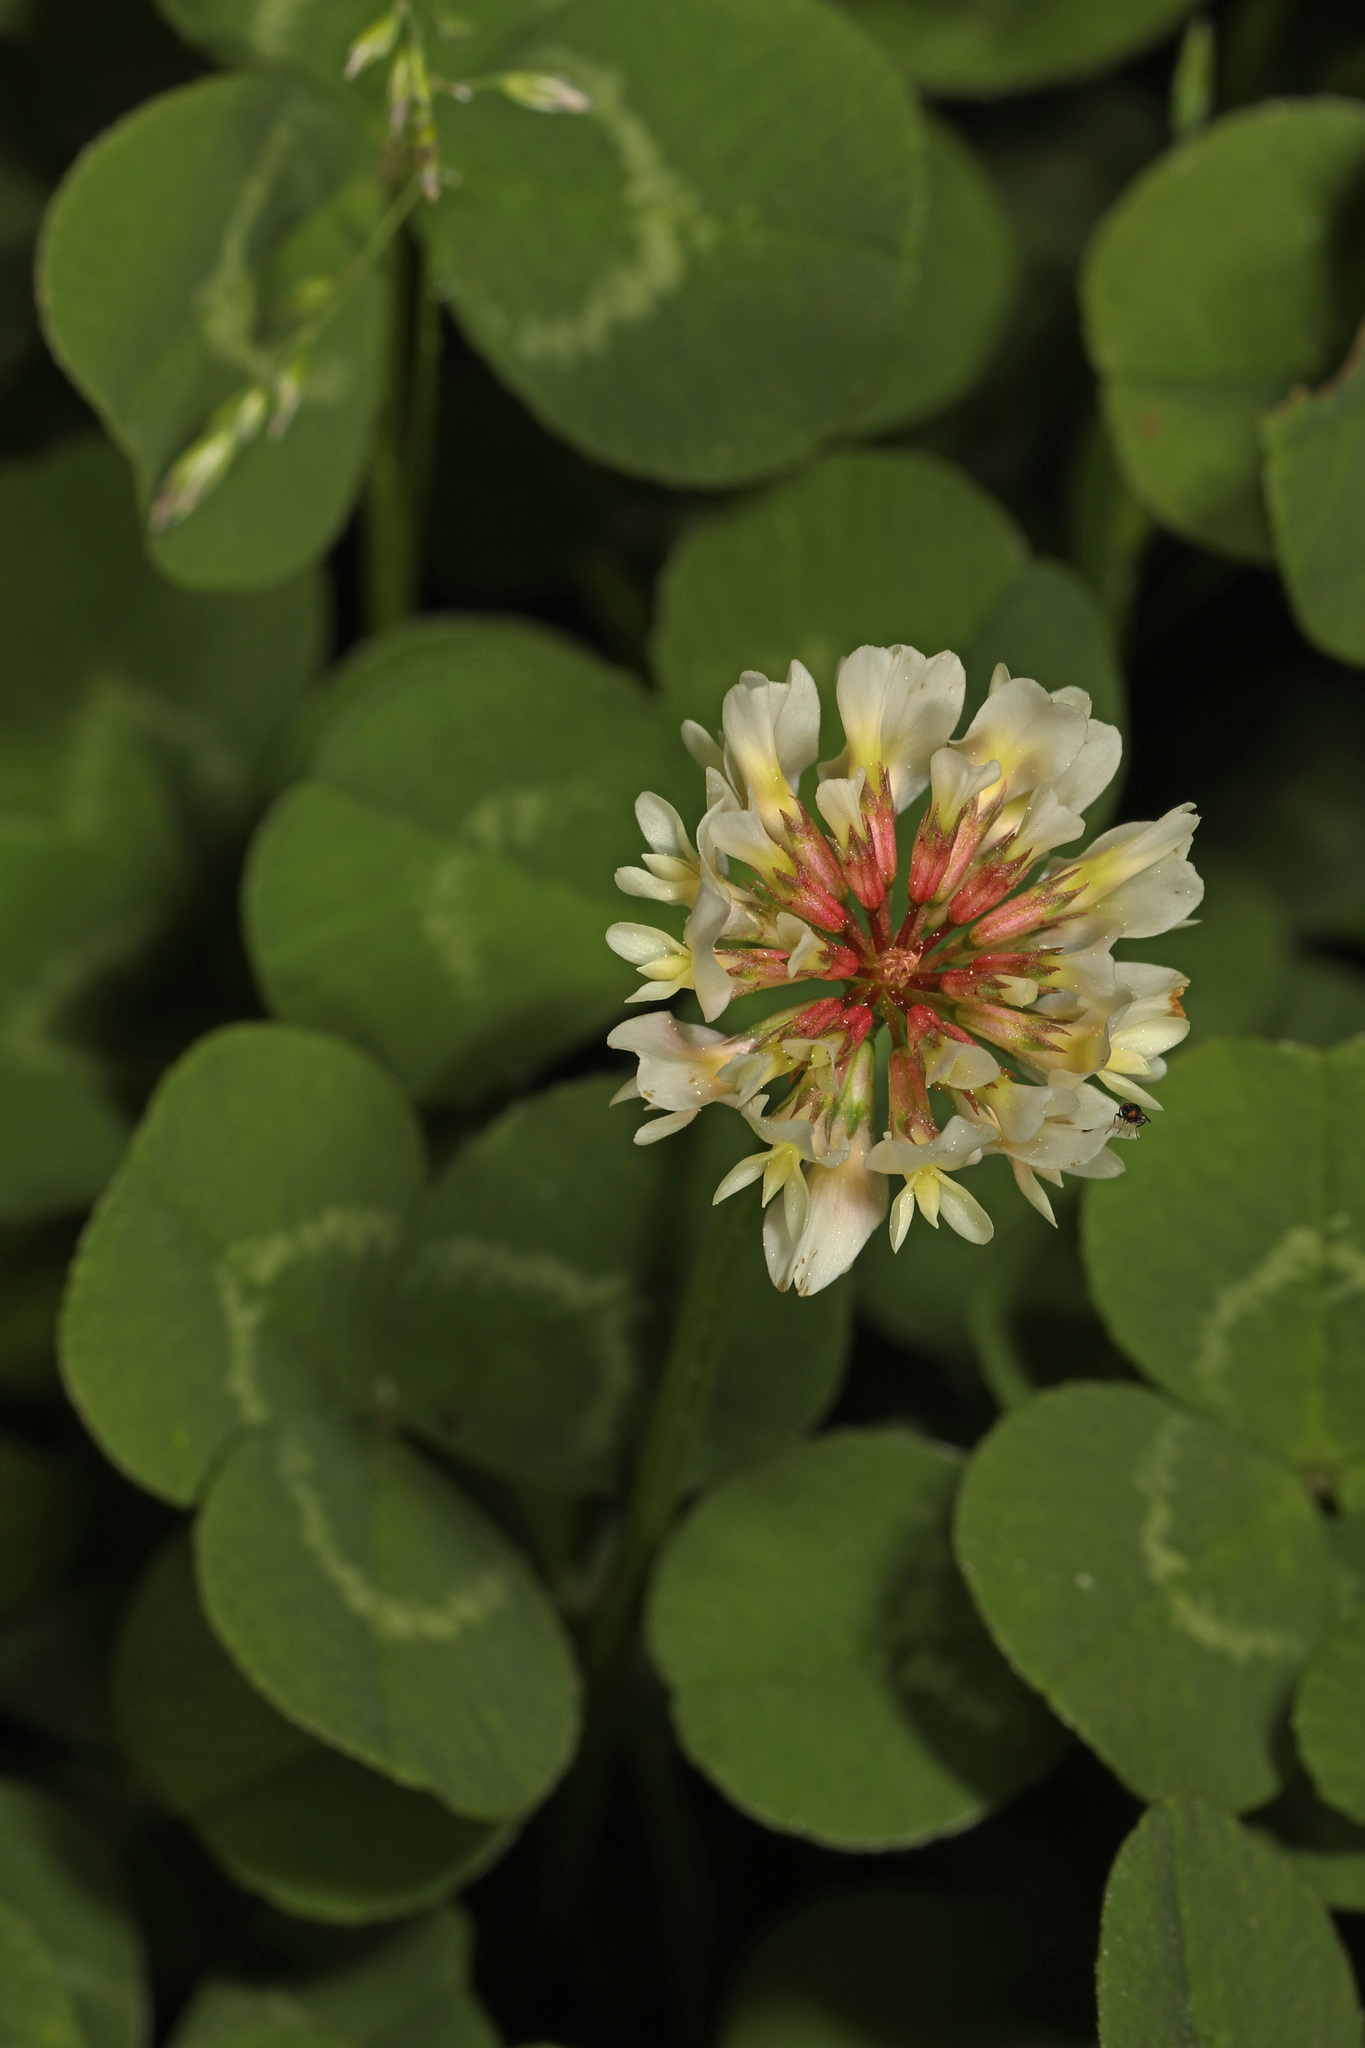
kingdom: Plantae
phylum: Tracheophyta
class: Magnoliopsida
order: Fabales
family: Fabaceae
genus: Trifolium
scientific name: Trifolium repens
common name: White clover
